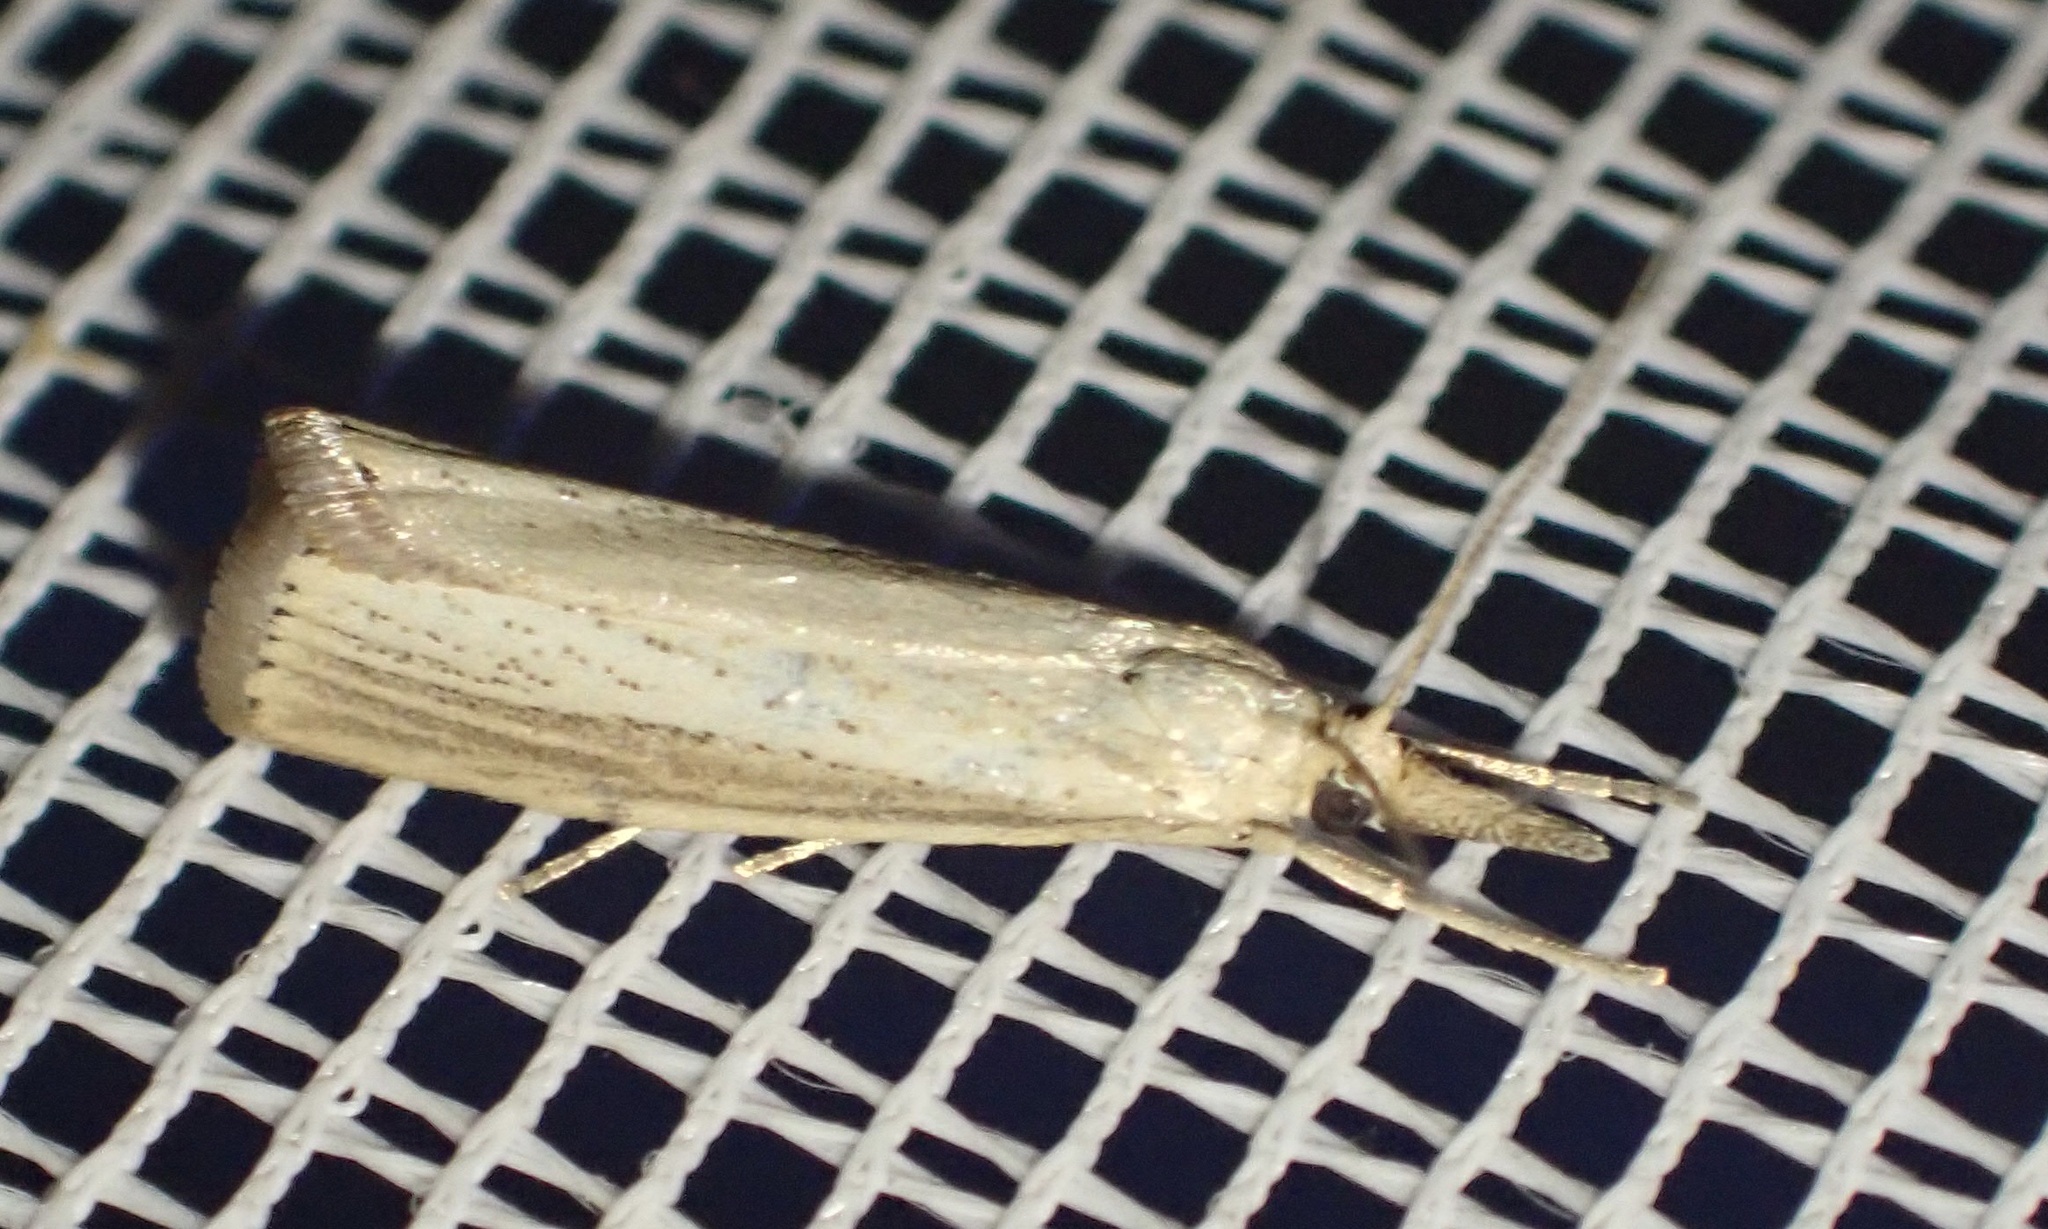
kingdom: Animalia
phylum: Arthropoda
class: Insecta
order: Lepidoptera
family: Crambidae
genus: Agriphila
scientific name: Agriphila straminella
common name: Straw grass-veneer
